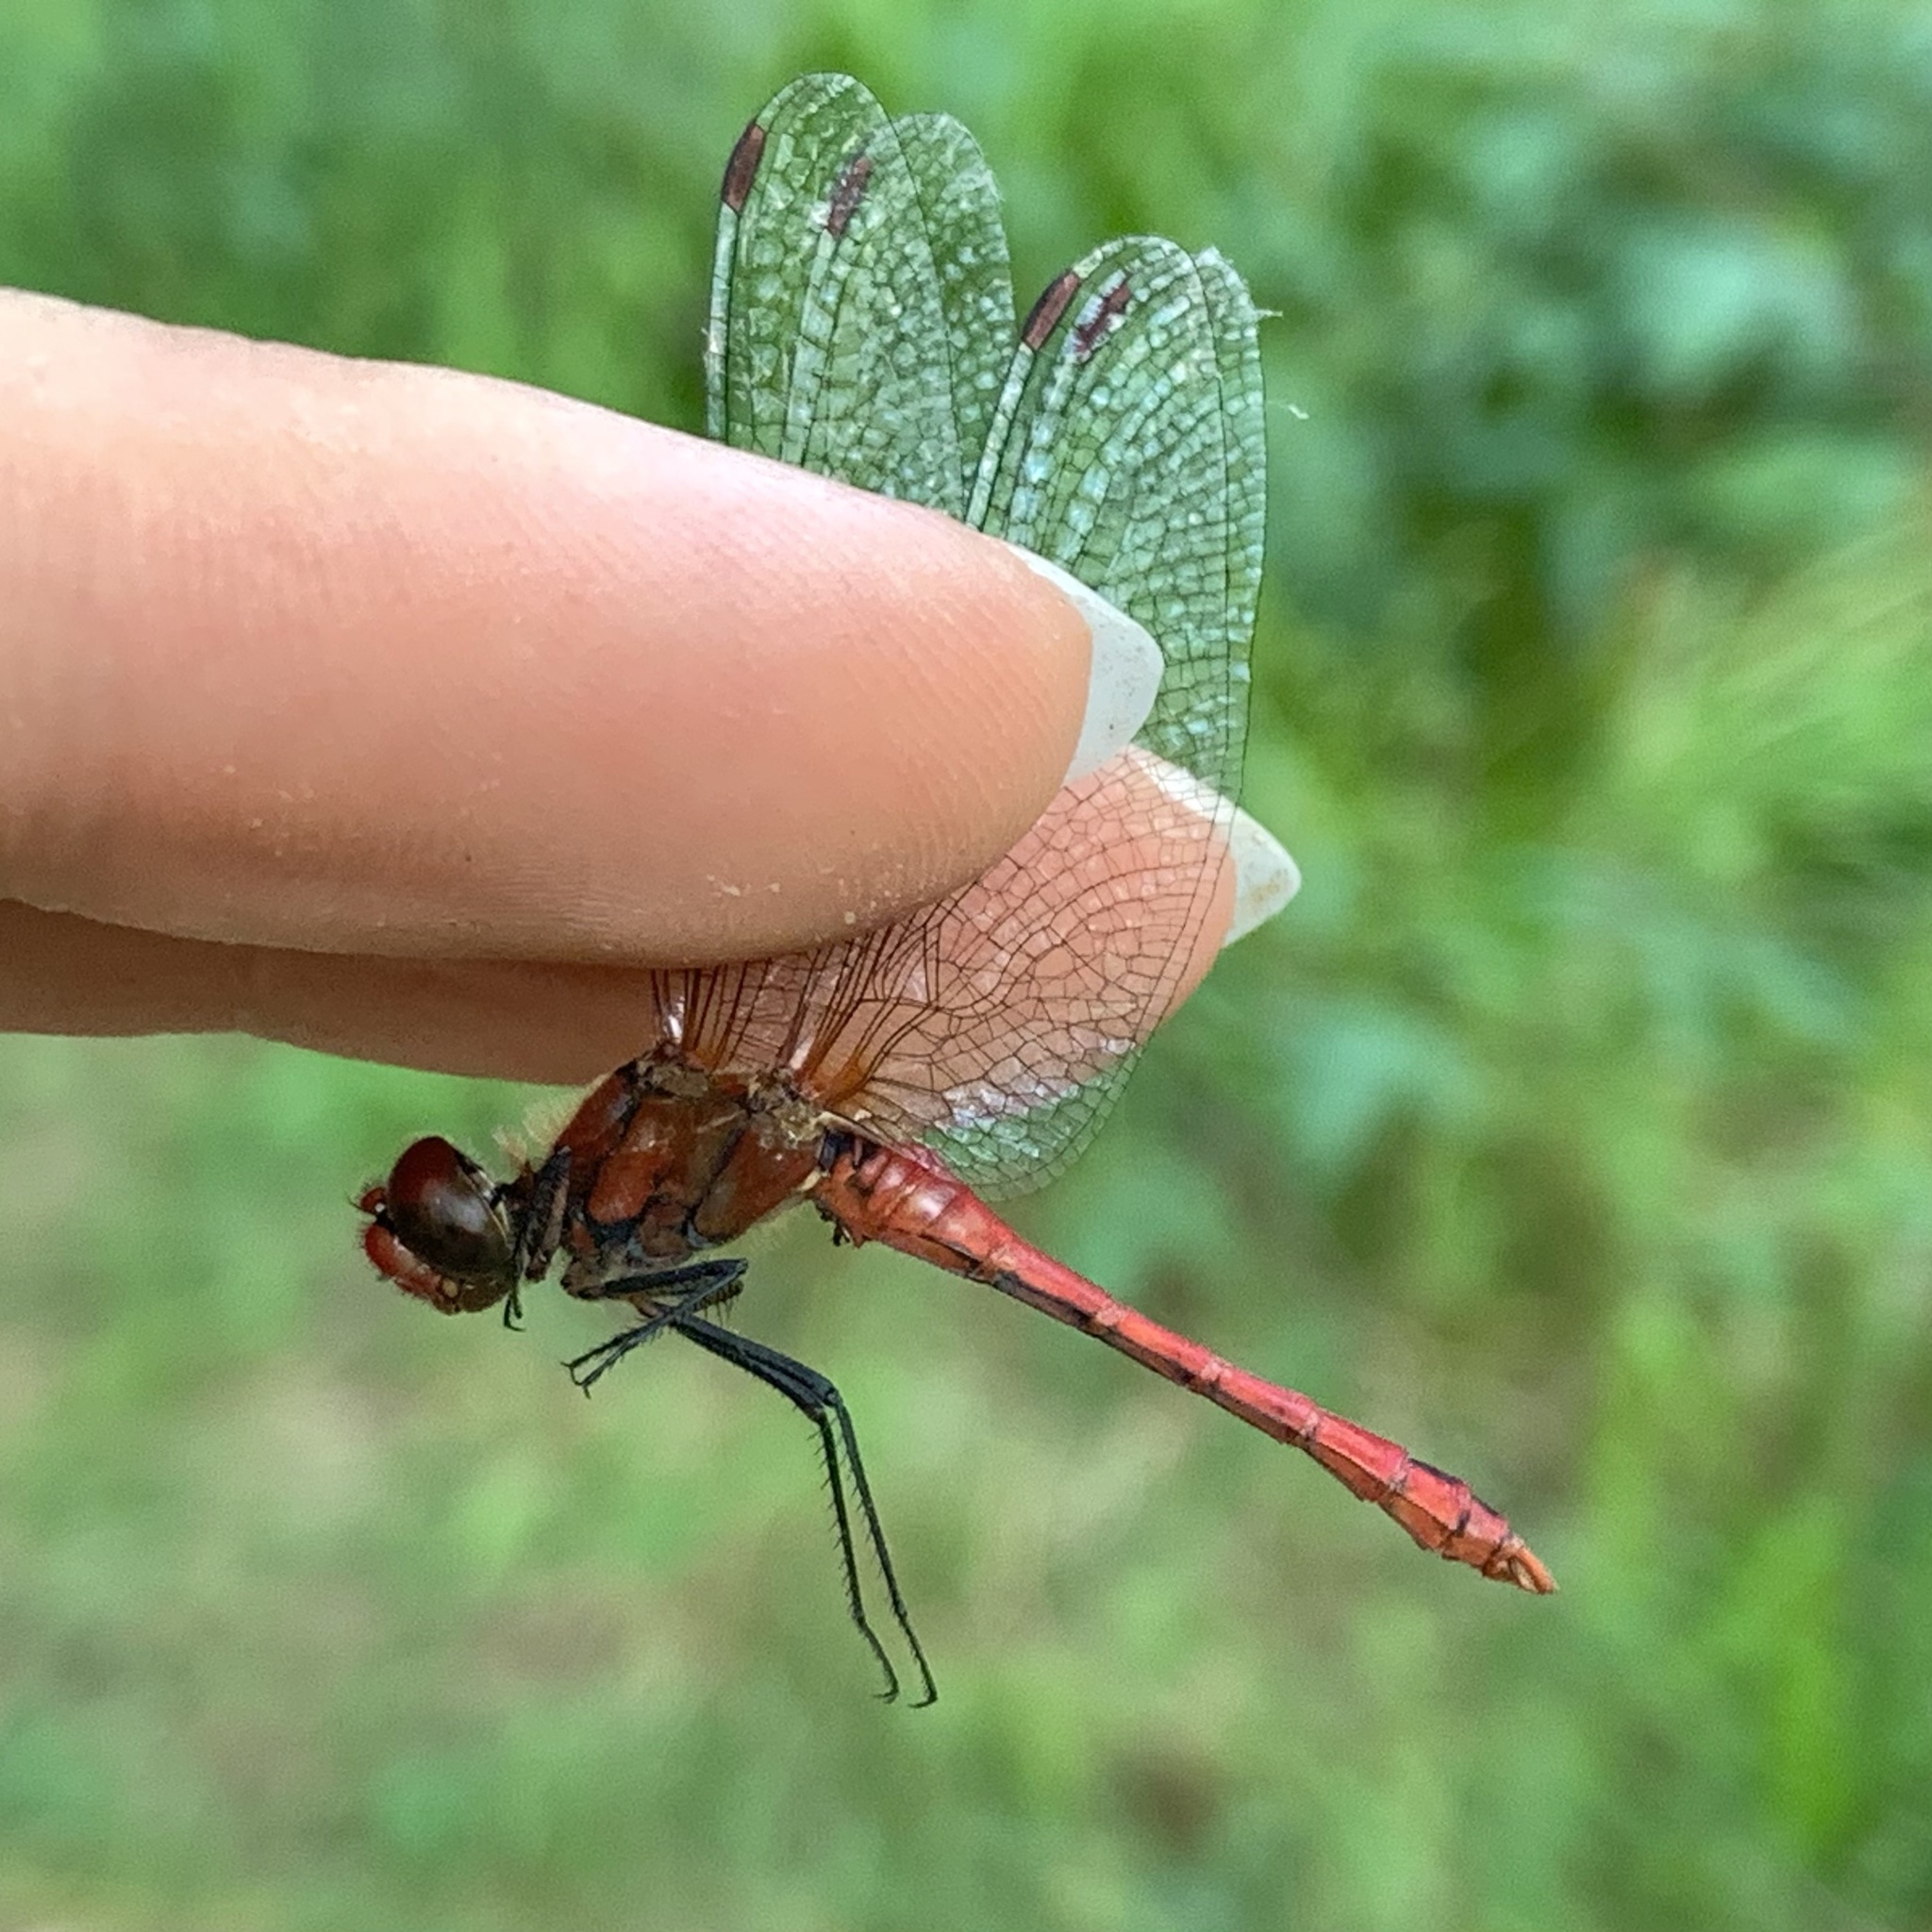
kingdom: Animalia
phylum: Arthropoda
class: Insecta
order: Odonata
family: Libellulidae
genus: Sympetrum
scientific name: Sympetrum sanguineum
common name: Ruddy darter
